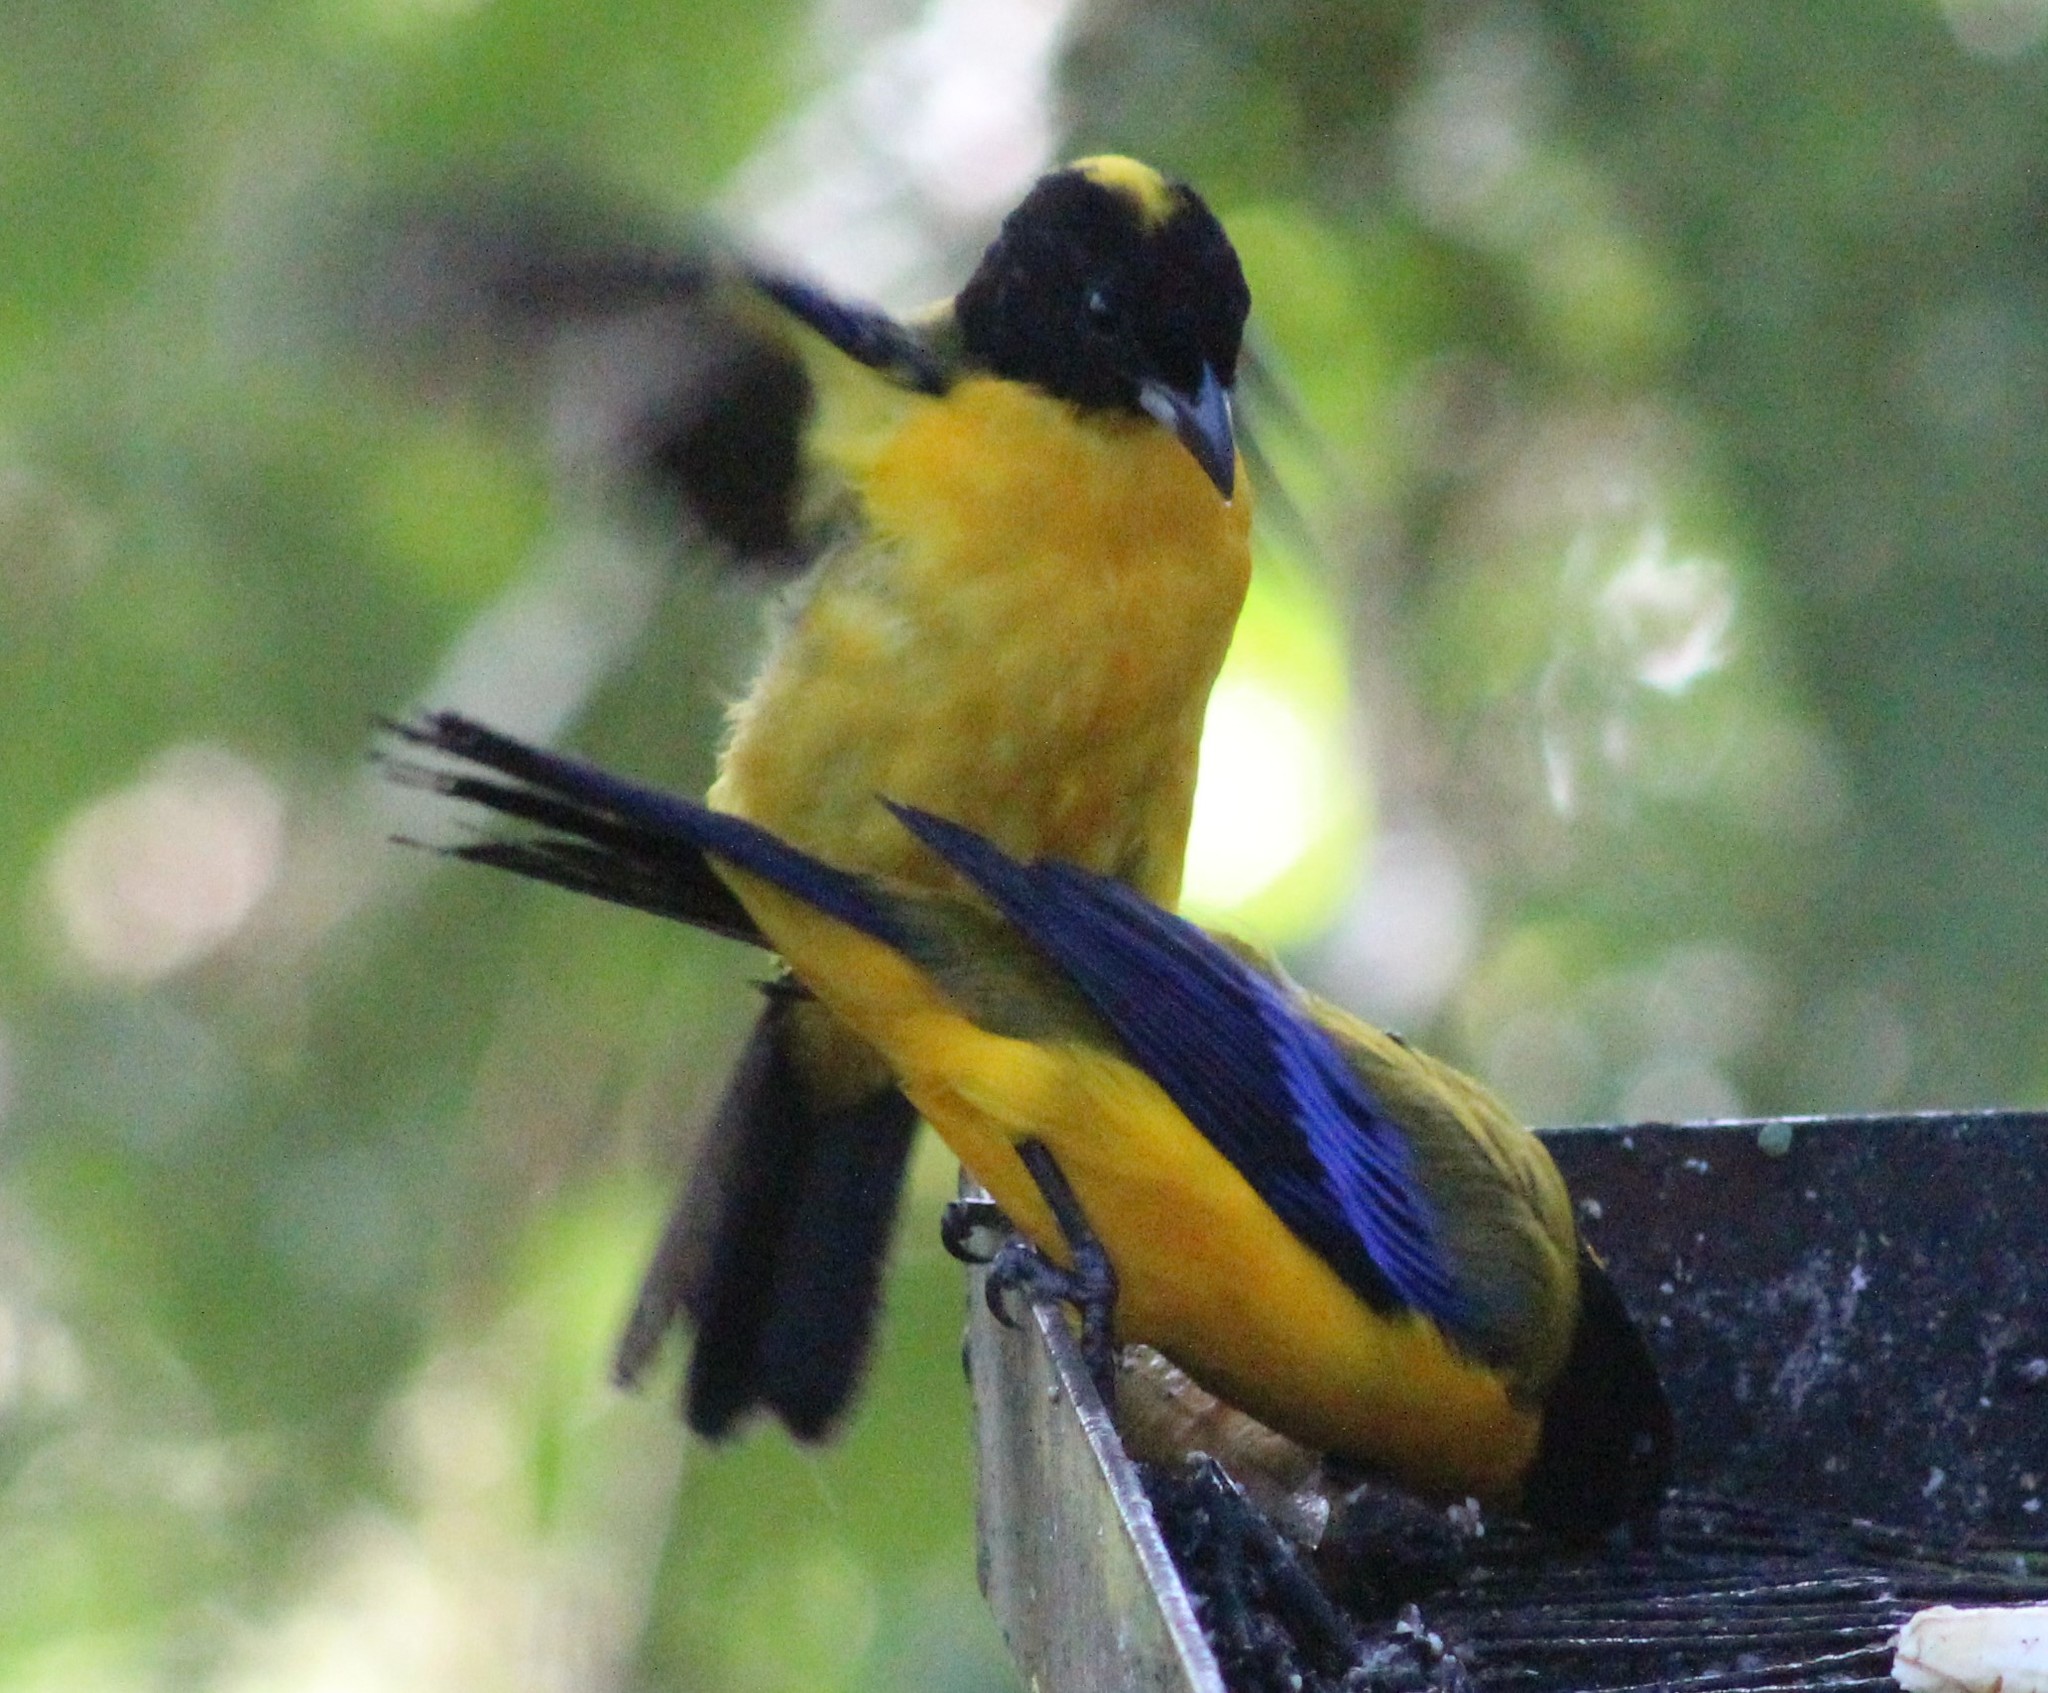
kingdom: Animalia
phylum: Chordata
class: Aves
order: Passeriformes
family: Thraupidae
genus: Anisognathus
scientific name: Anisognathus notabilis
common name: Black-chinned mountain tanager
